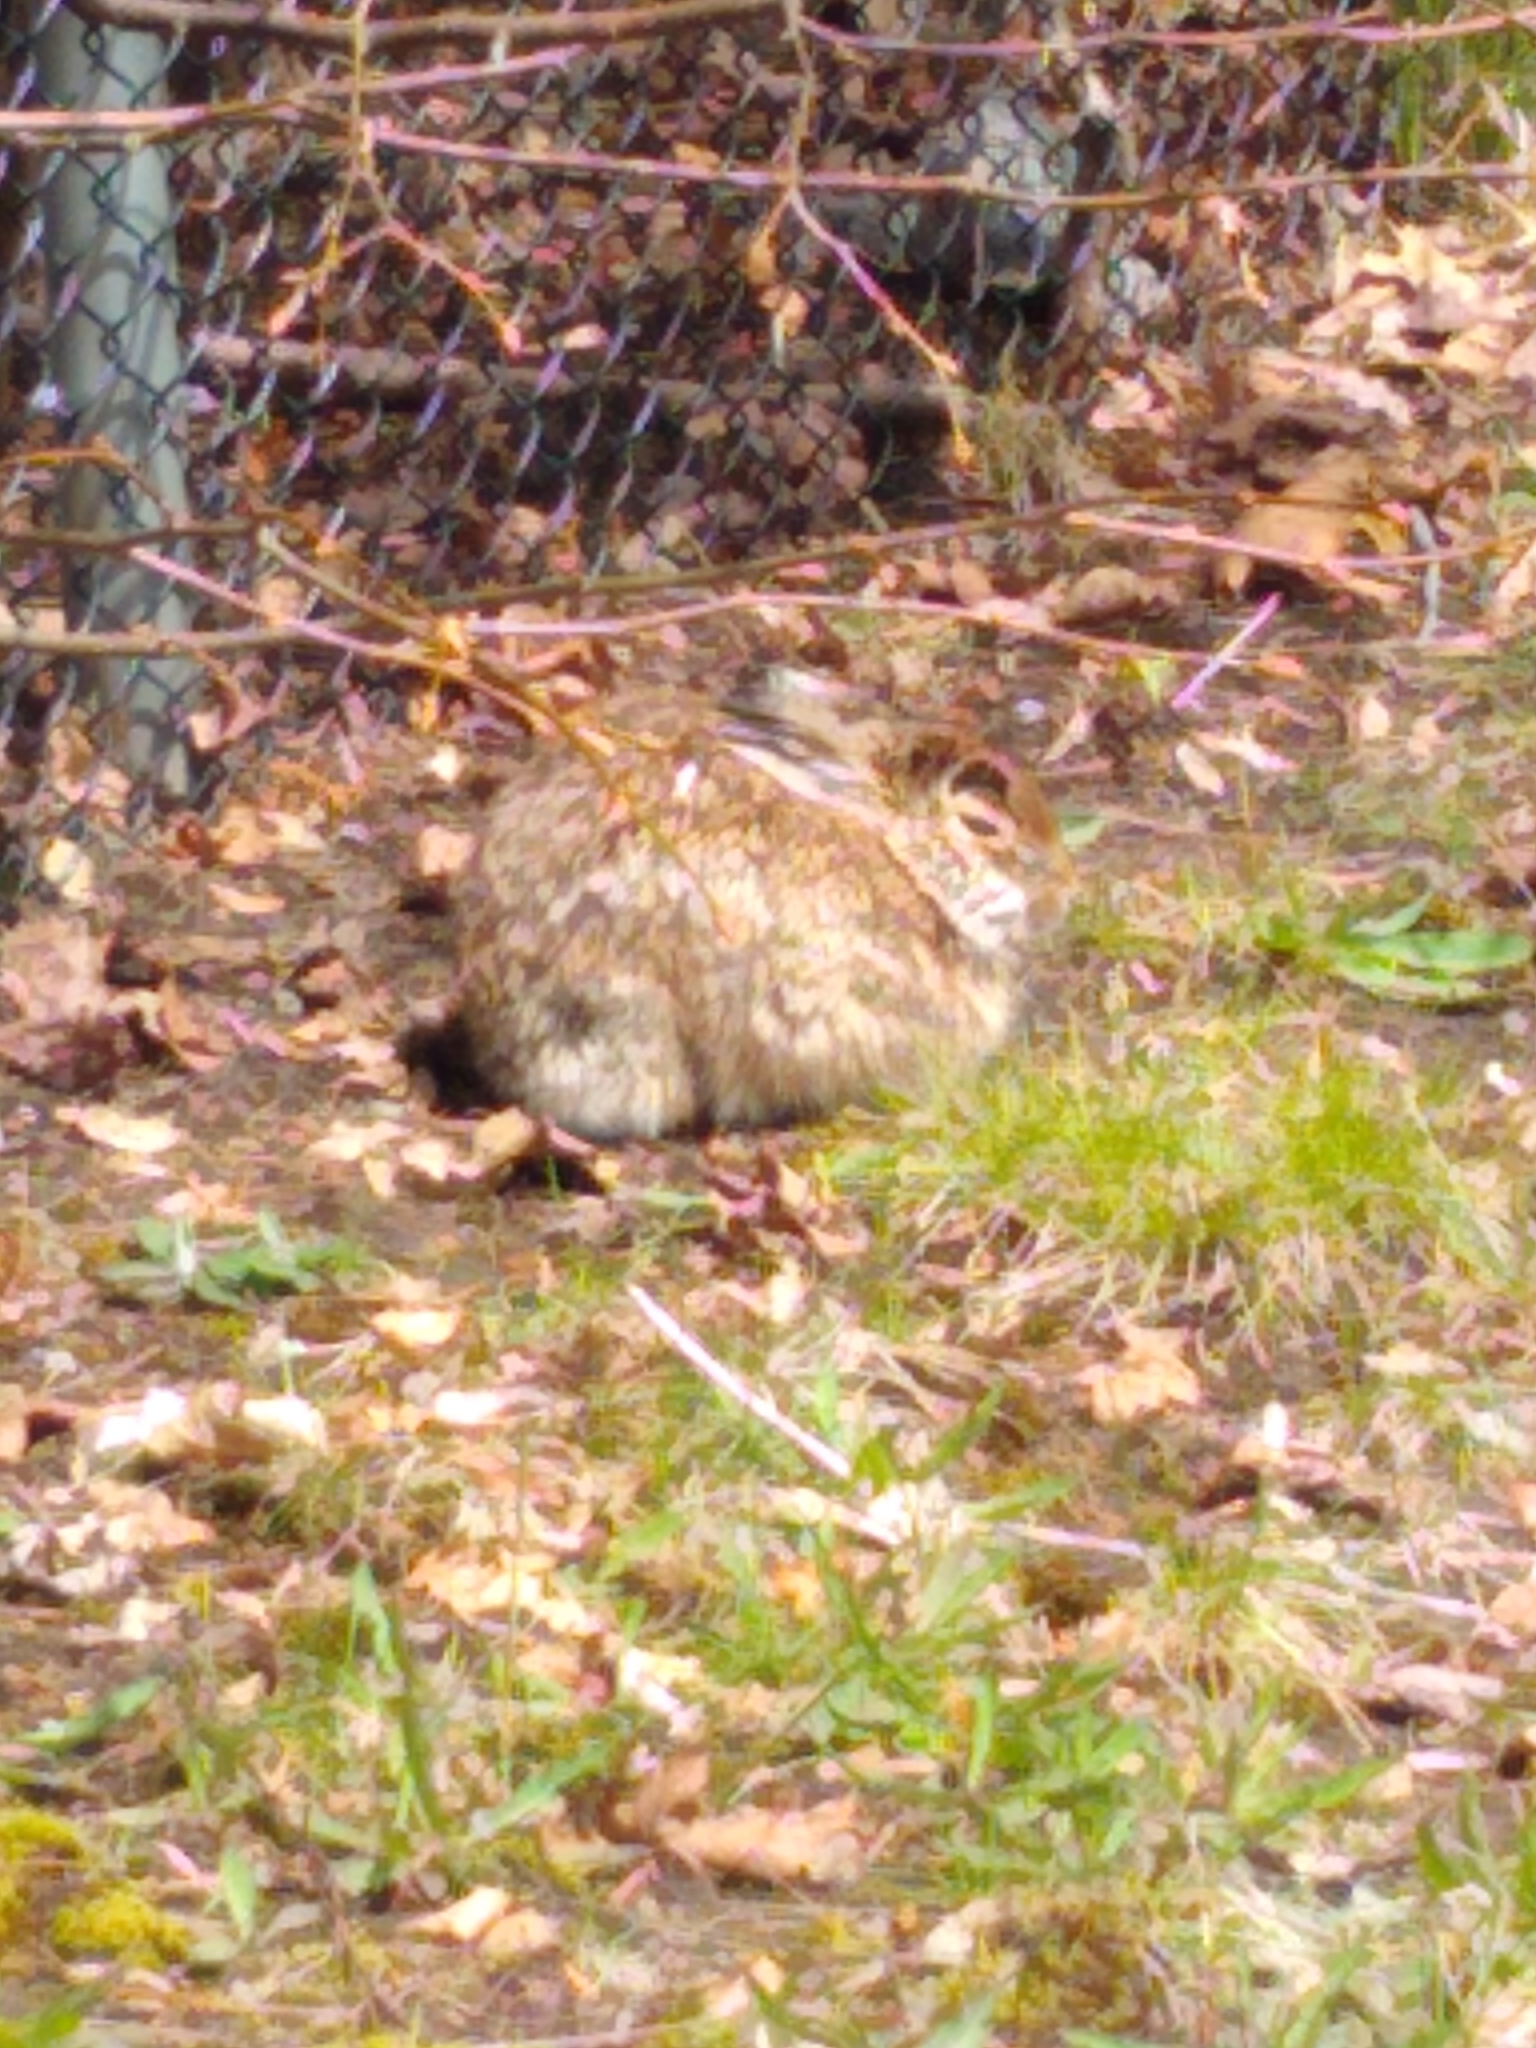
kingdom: Animalia
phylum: Chordata
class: Mammalia
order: Lagomorpha
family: Leporidae
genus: Sylvilagus
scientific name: Sylvilagus floridanus
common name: Eastern cottontail
